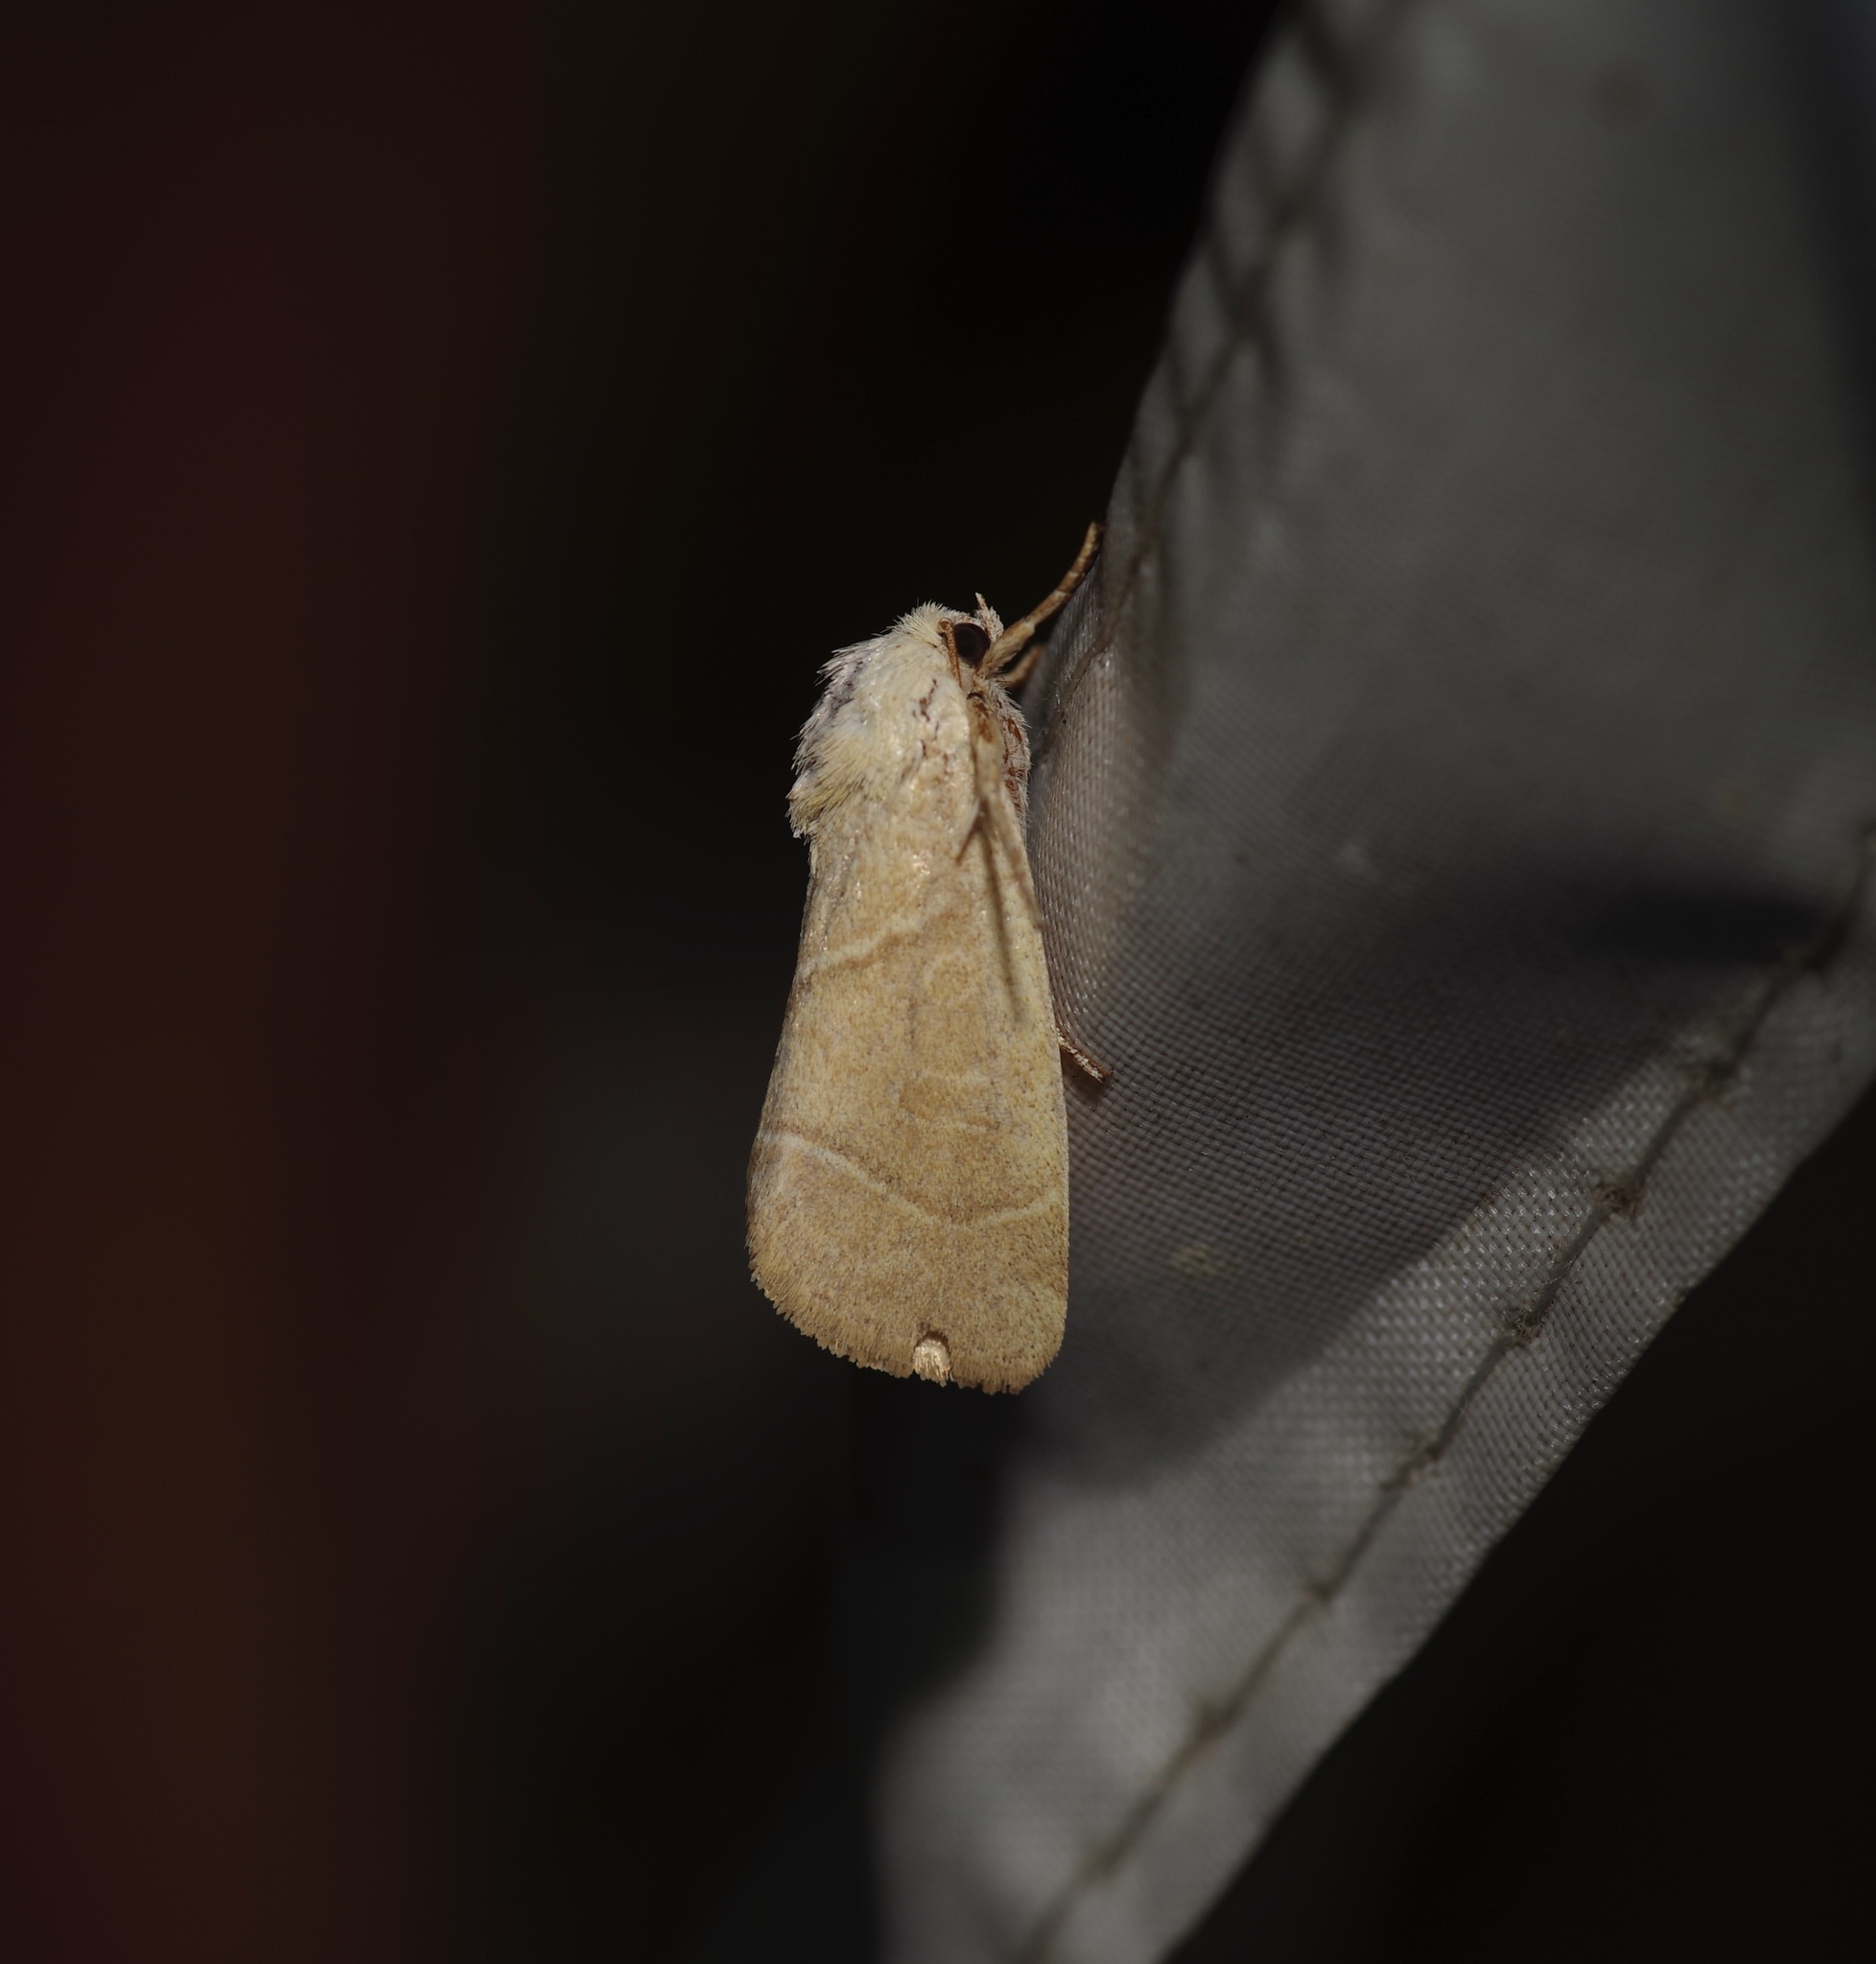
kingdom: Animalia
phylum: Arthropoda
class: Insecta
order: Lepidoptera
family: Noctuidae
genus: Cosmia
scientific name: Cosmia calami
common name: American dun-bar moth
